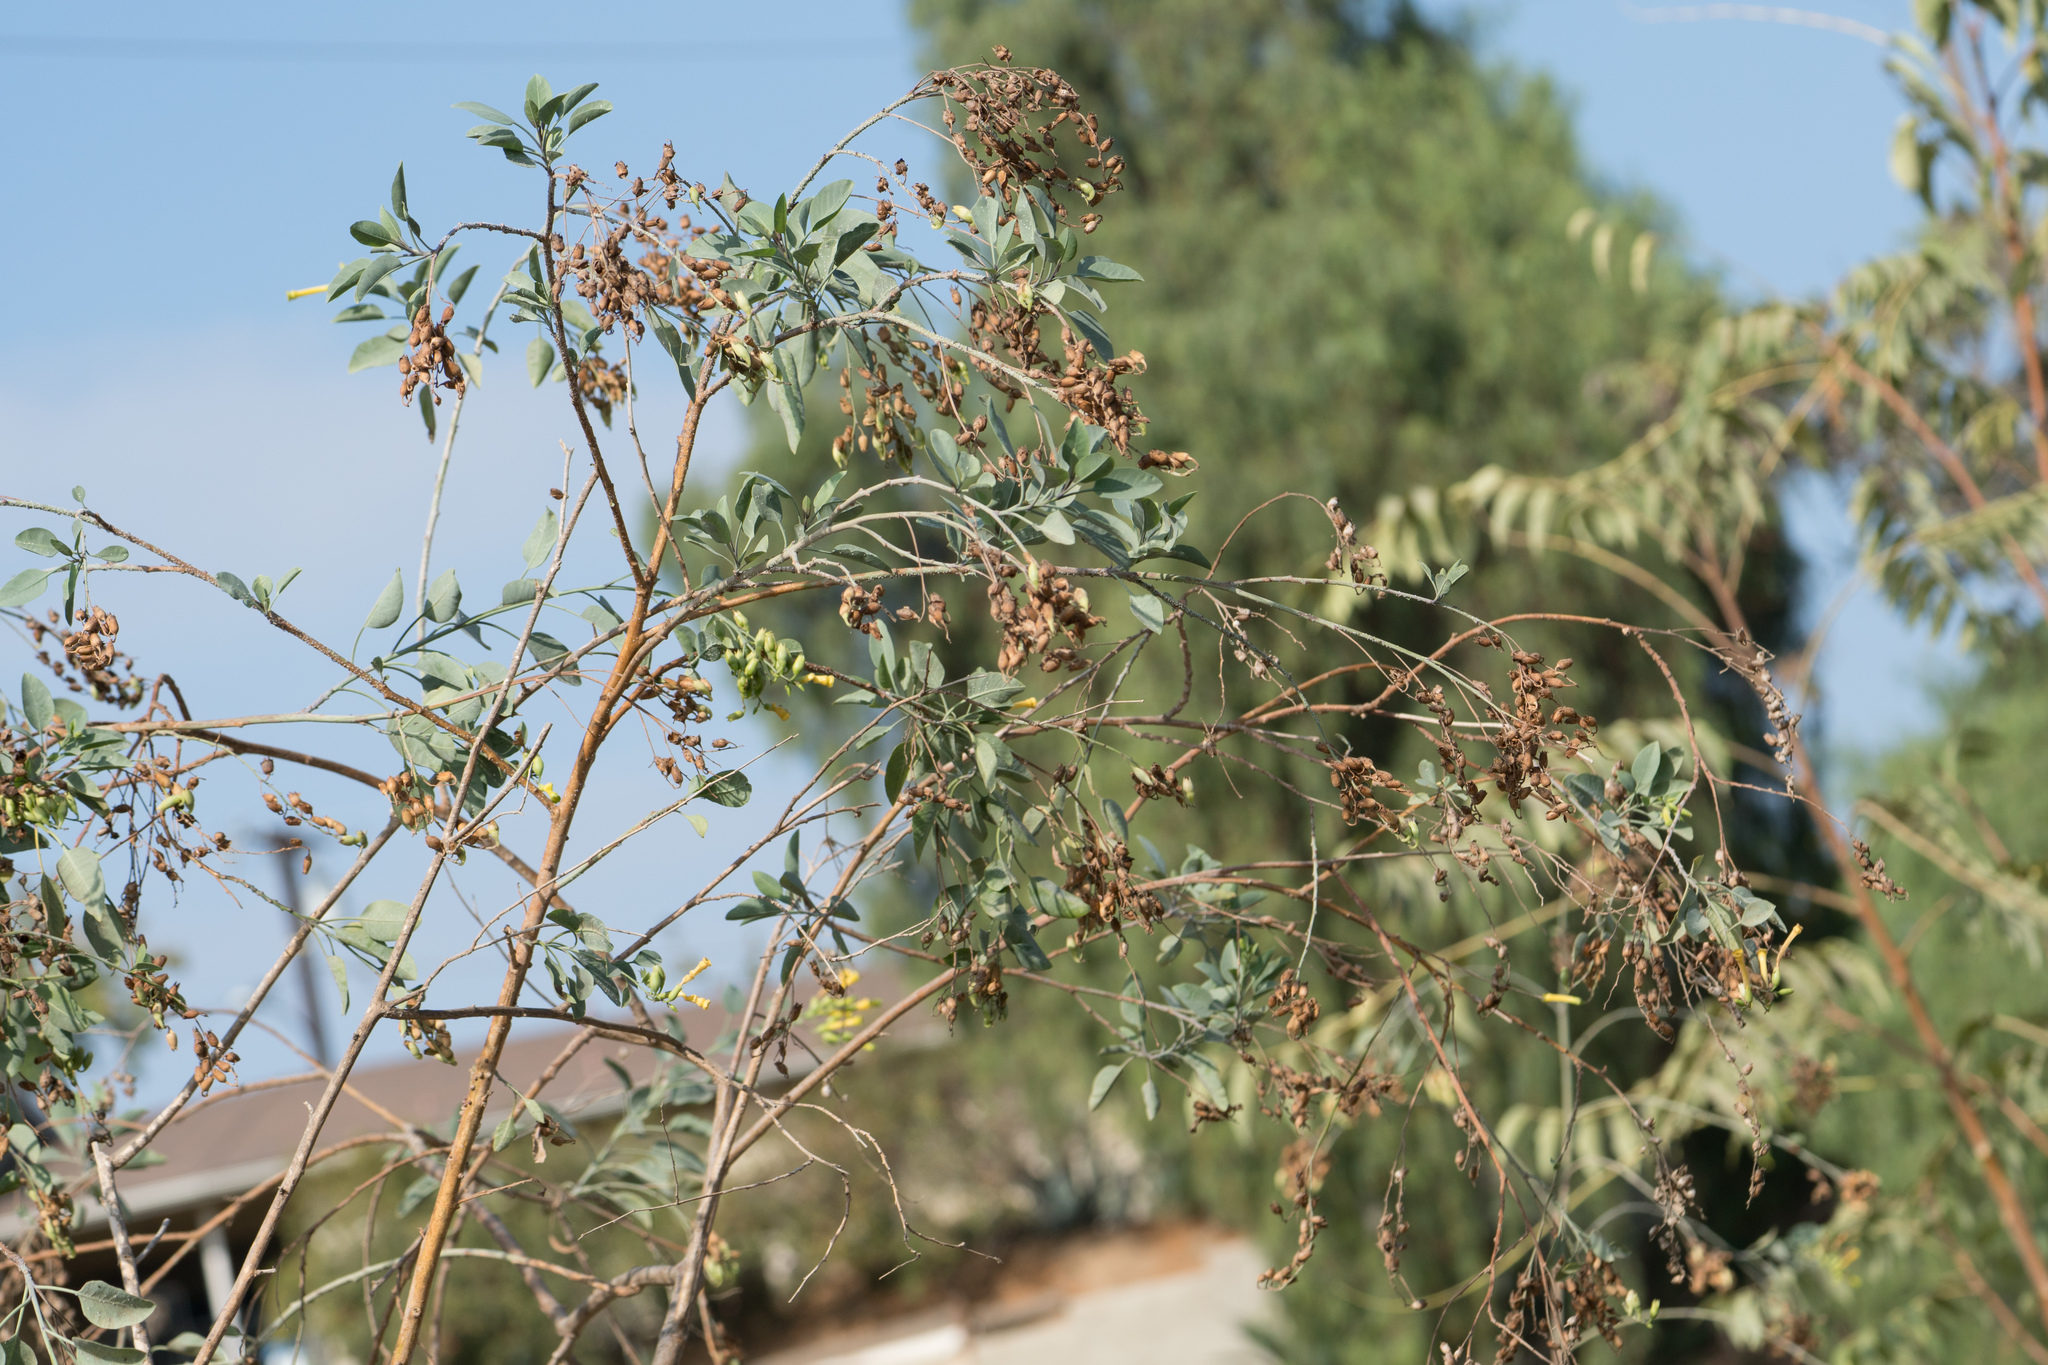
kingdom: Plantae
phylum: Tracheophyta
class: Magnoliopsida
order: Solanales
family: Solanaceae
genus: Nicotiana
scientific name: Nicotiana glauca
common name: Tree tobacco
